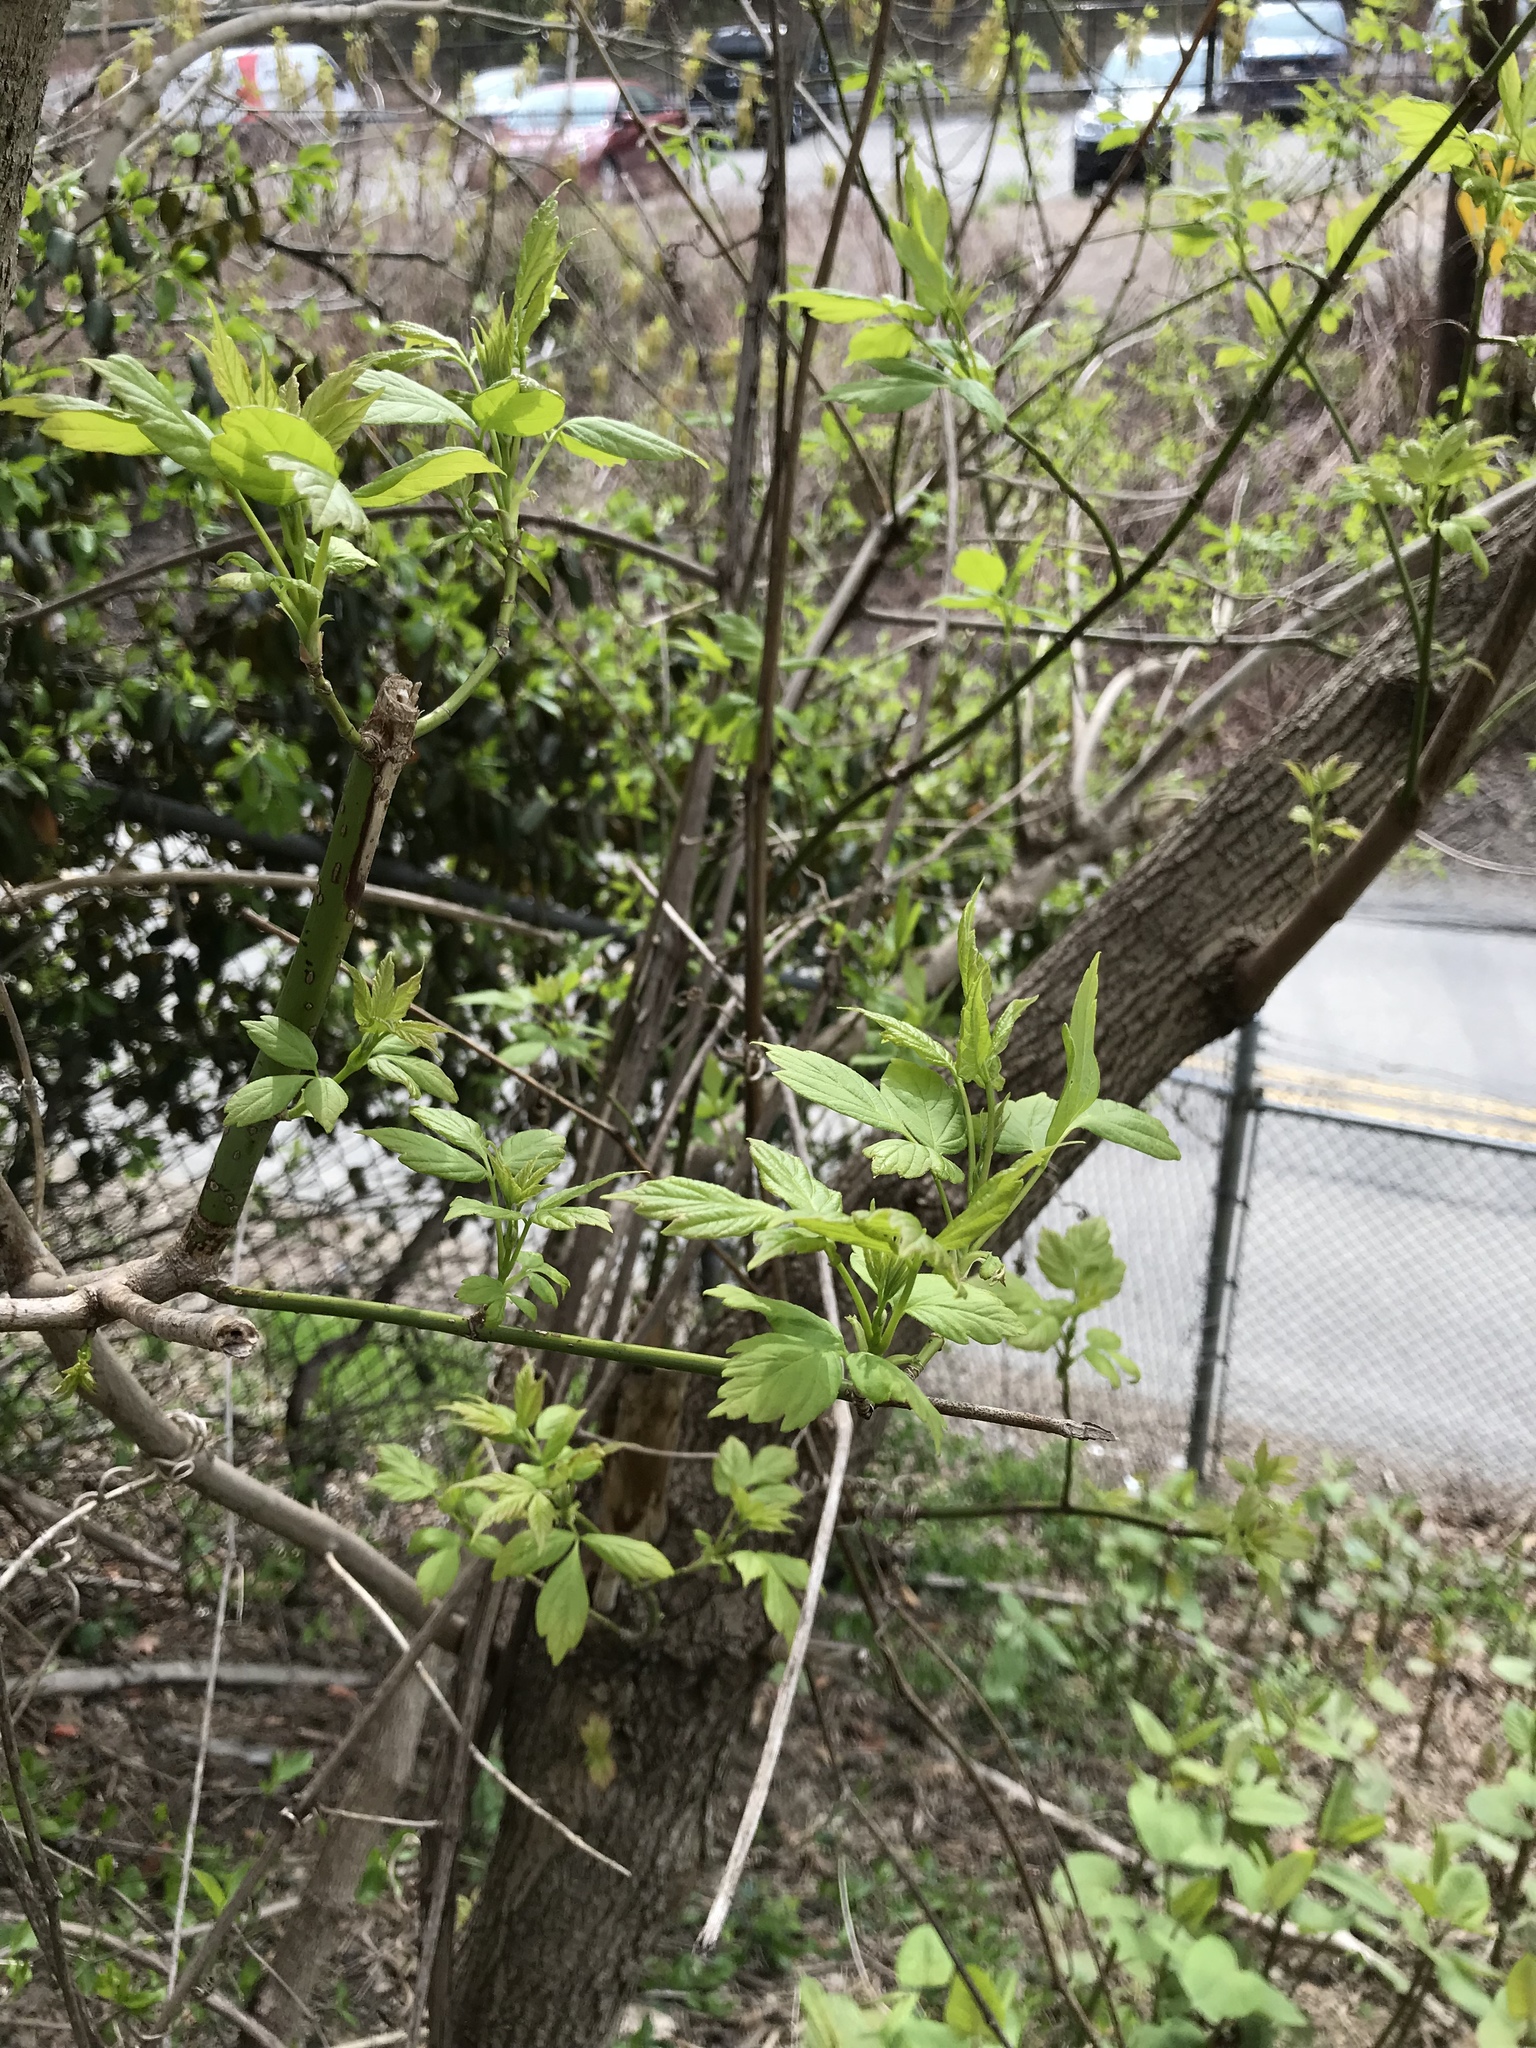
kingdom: Plantae
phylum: Tracheophyta
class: Magnoliopsida
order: Sapindales
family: Sapindaceae
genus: Acer
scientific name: Acer negundo
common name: Ashleaf maple
